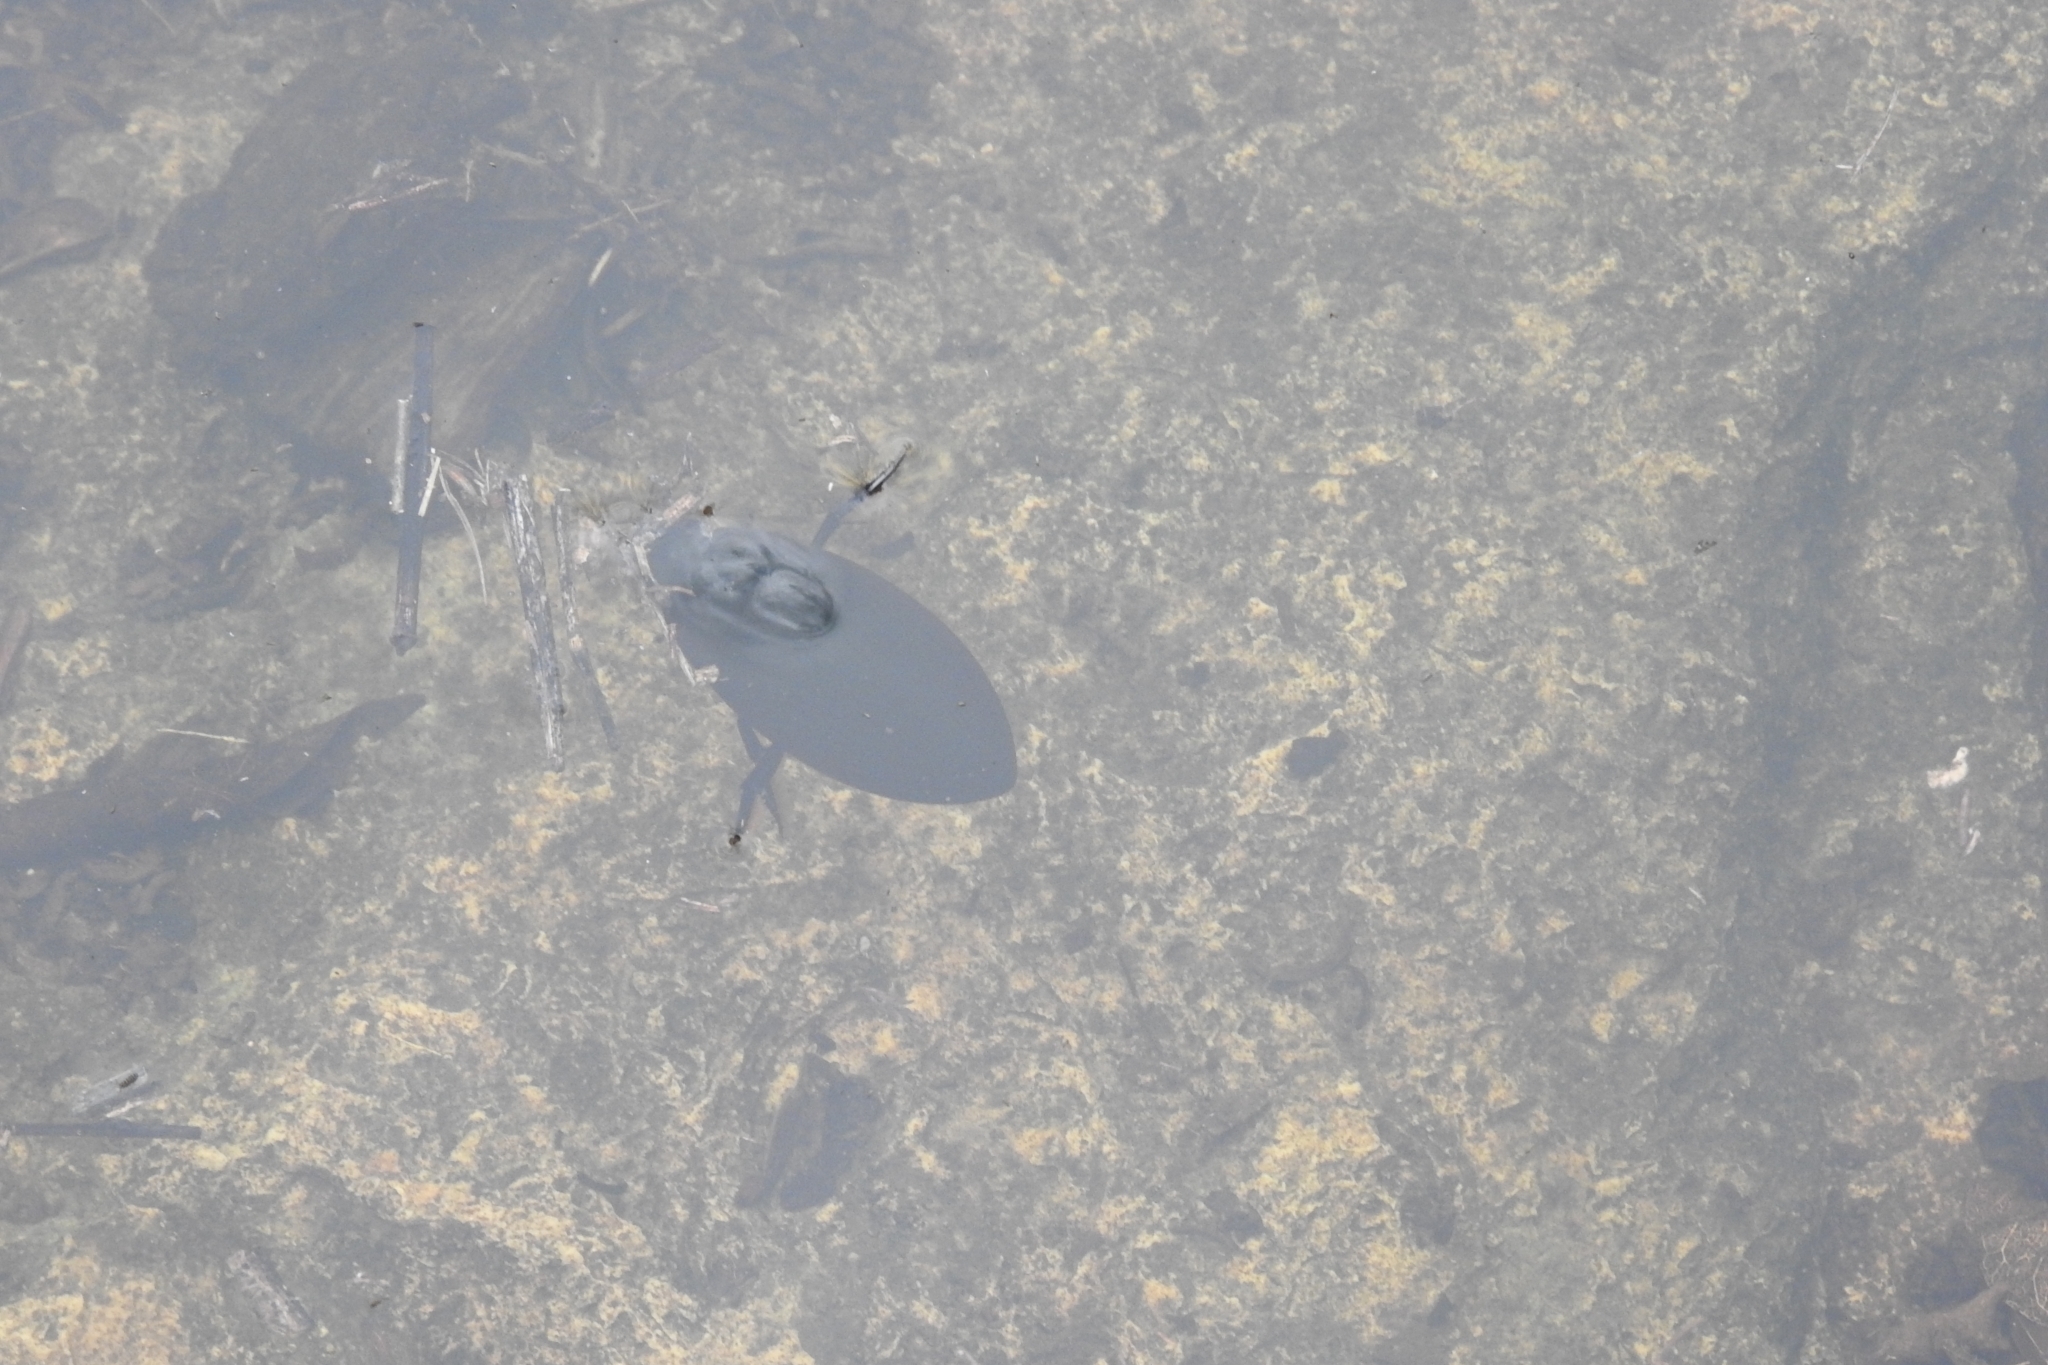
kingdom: Animalia
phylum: Arthropoda
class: Insecta
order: Coleoptera
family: Hydrophilidae
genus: Hydrophilus
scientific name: Hydrophilus
